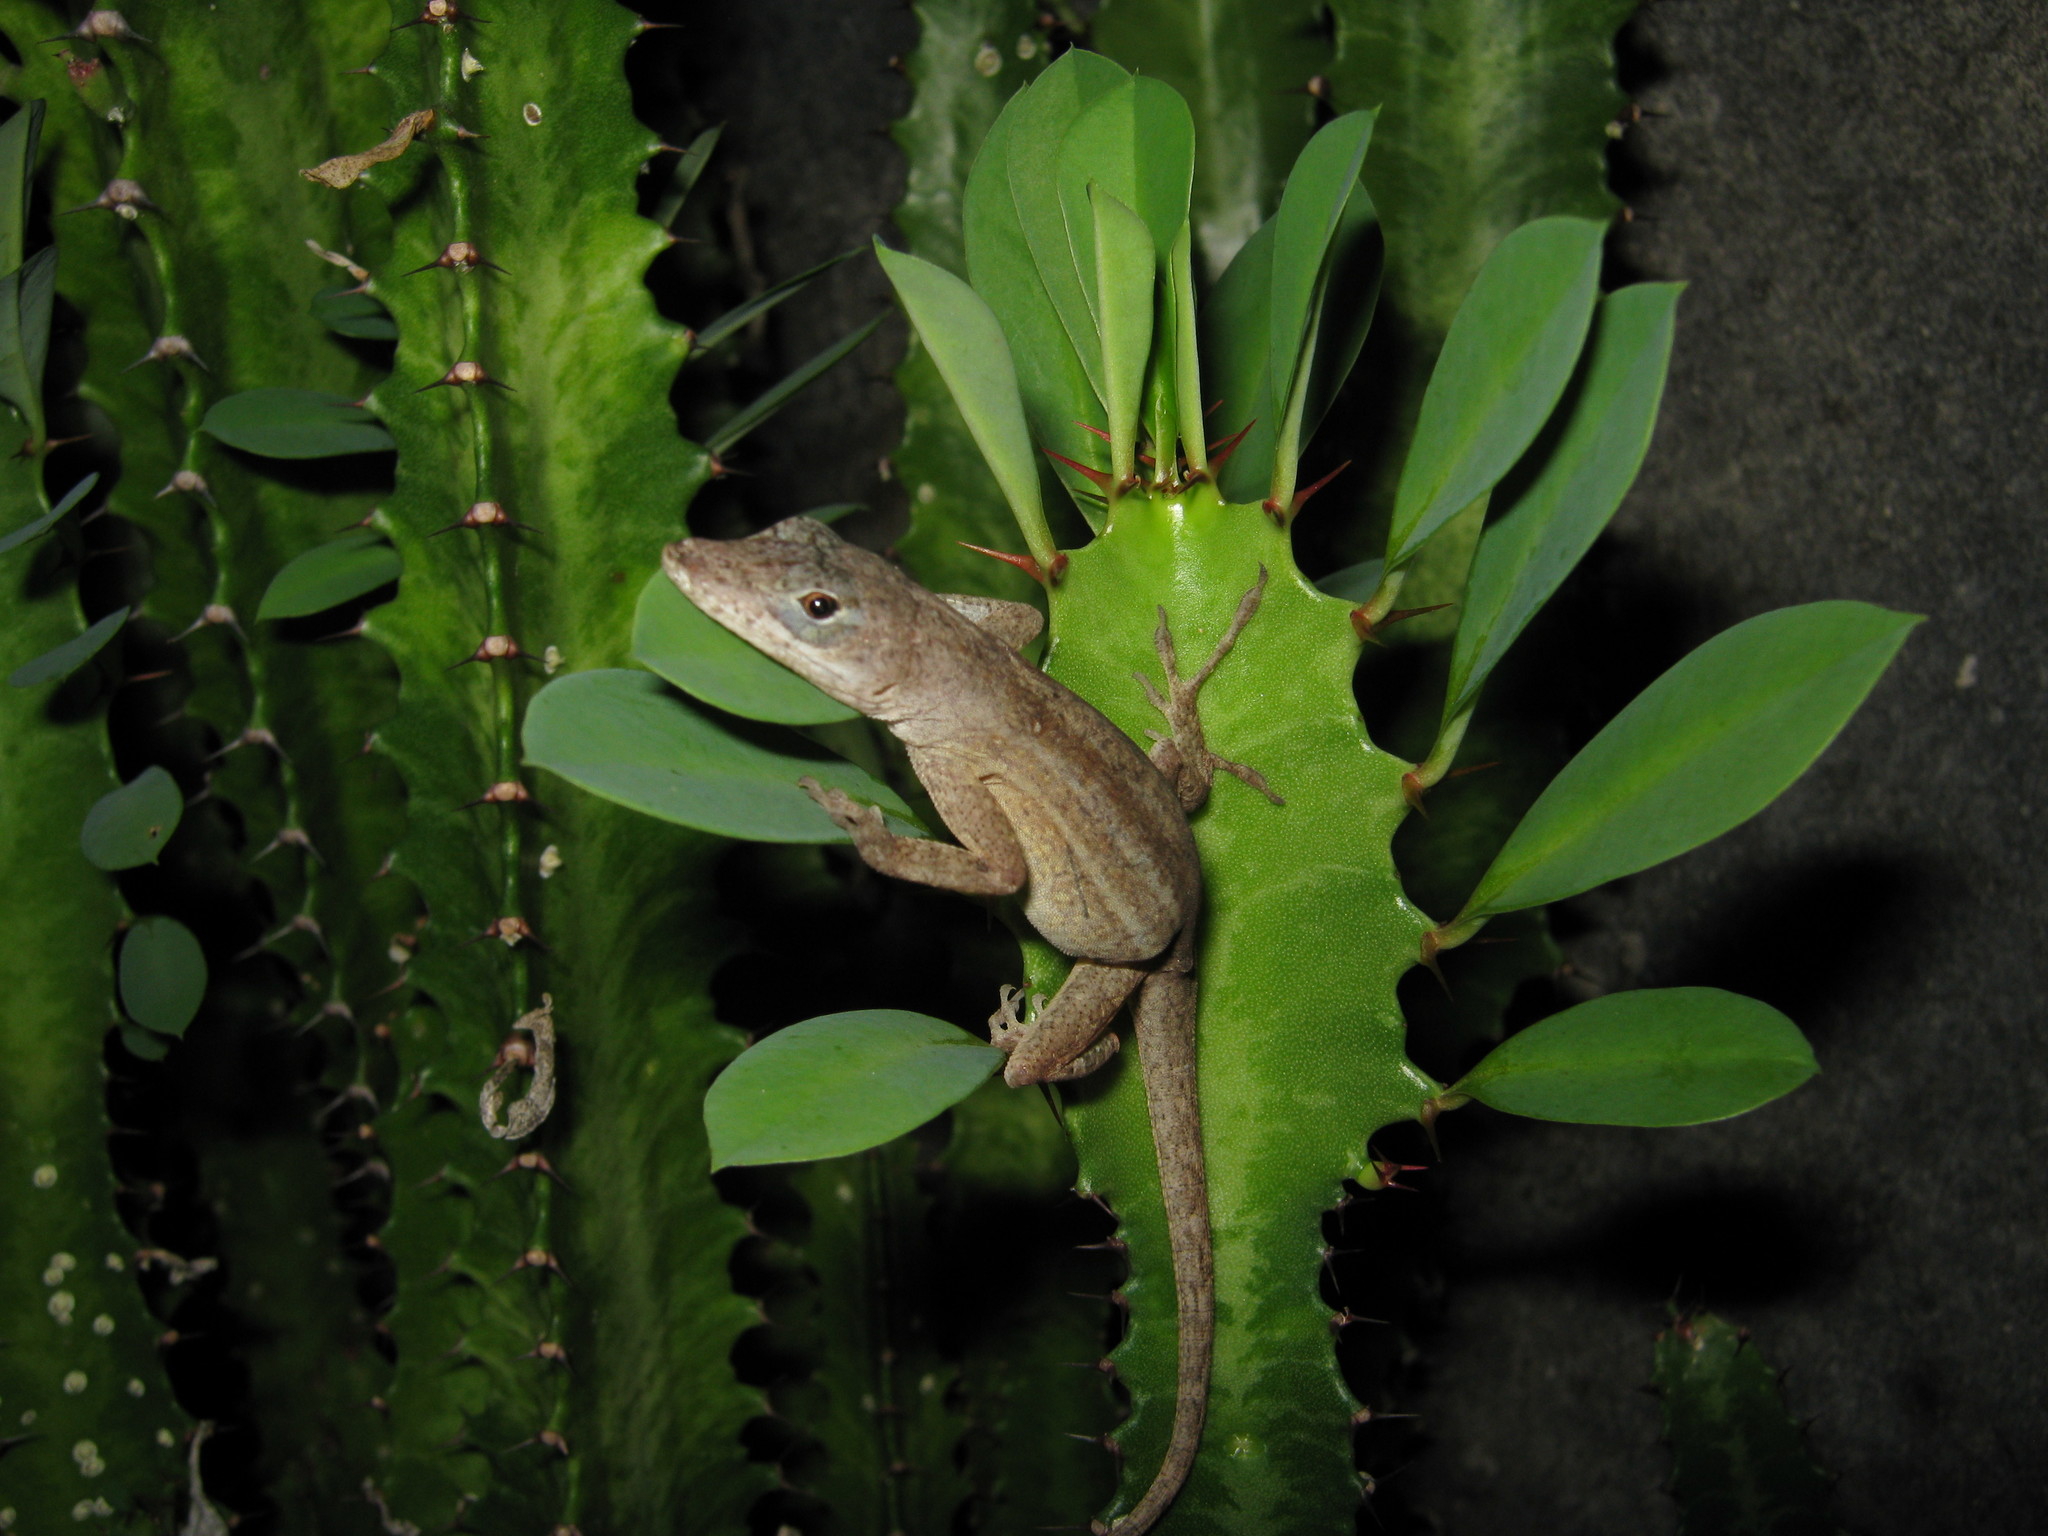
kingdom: Animalia
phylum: Chordata
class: Squamata
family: Dactyloidae
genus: Anolis
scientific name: Anolis sagrei
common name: Brown anole
